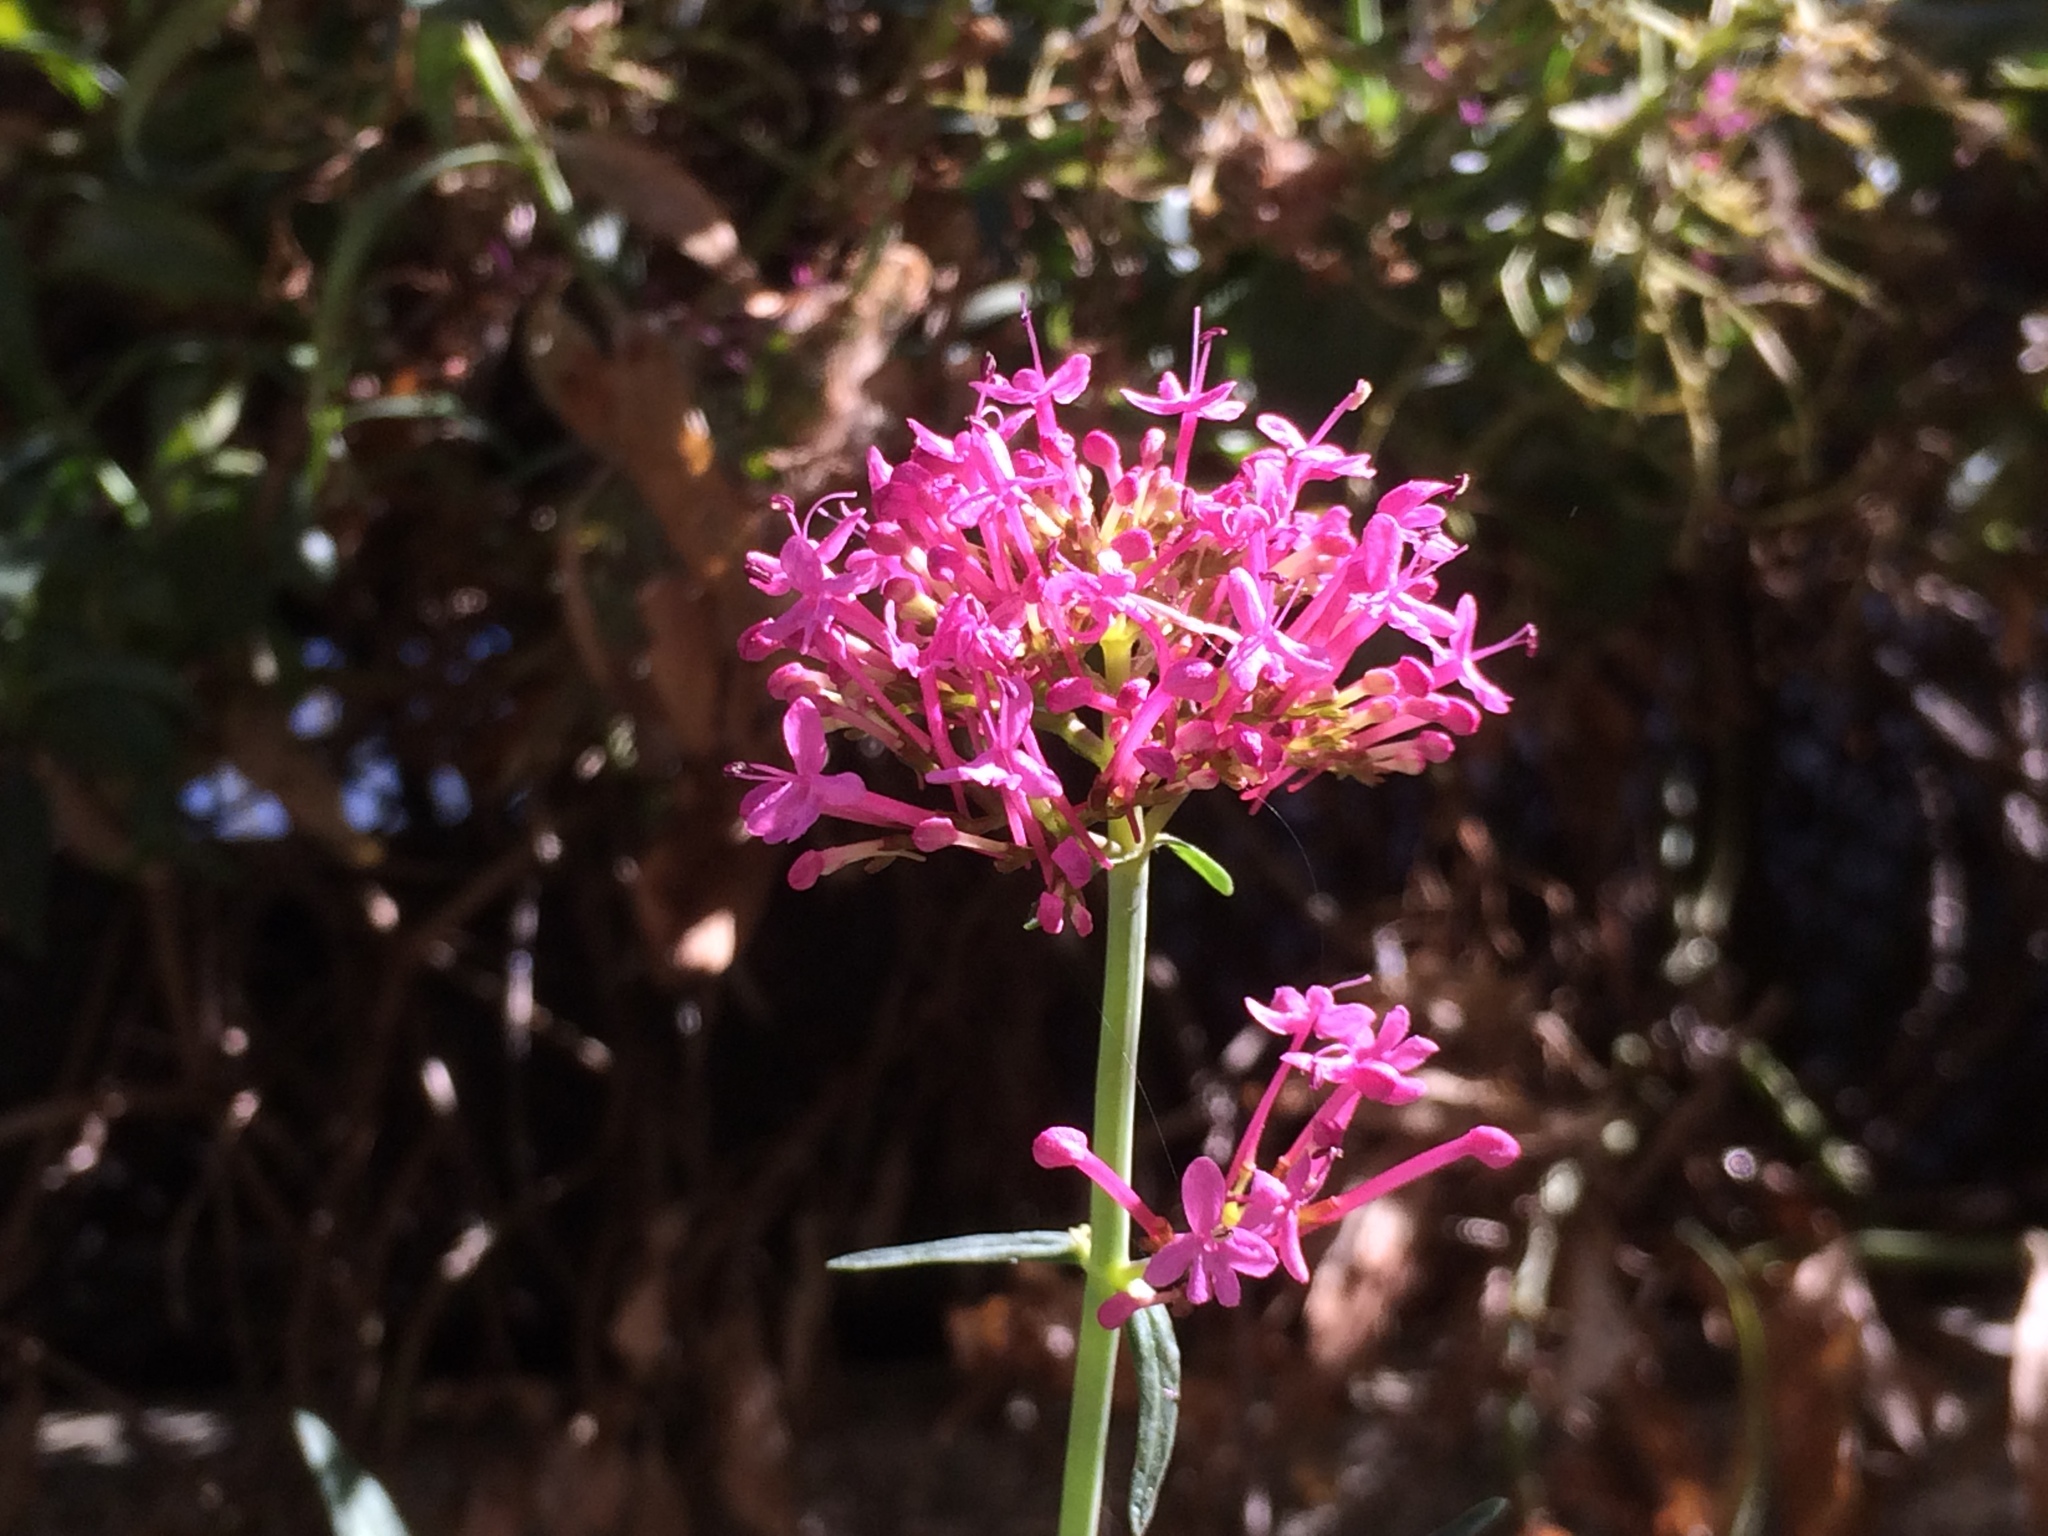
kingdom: Plantae
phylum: Tracheophyta
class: Magnoliopsida
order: Dipsacales
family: Caprifoliaceae
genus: Centranthus
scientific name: Centranthus ruber
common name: Red valerian
